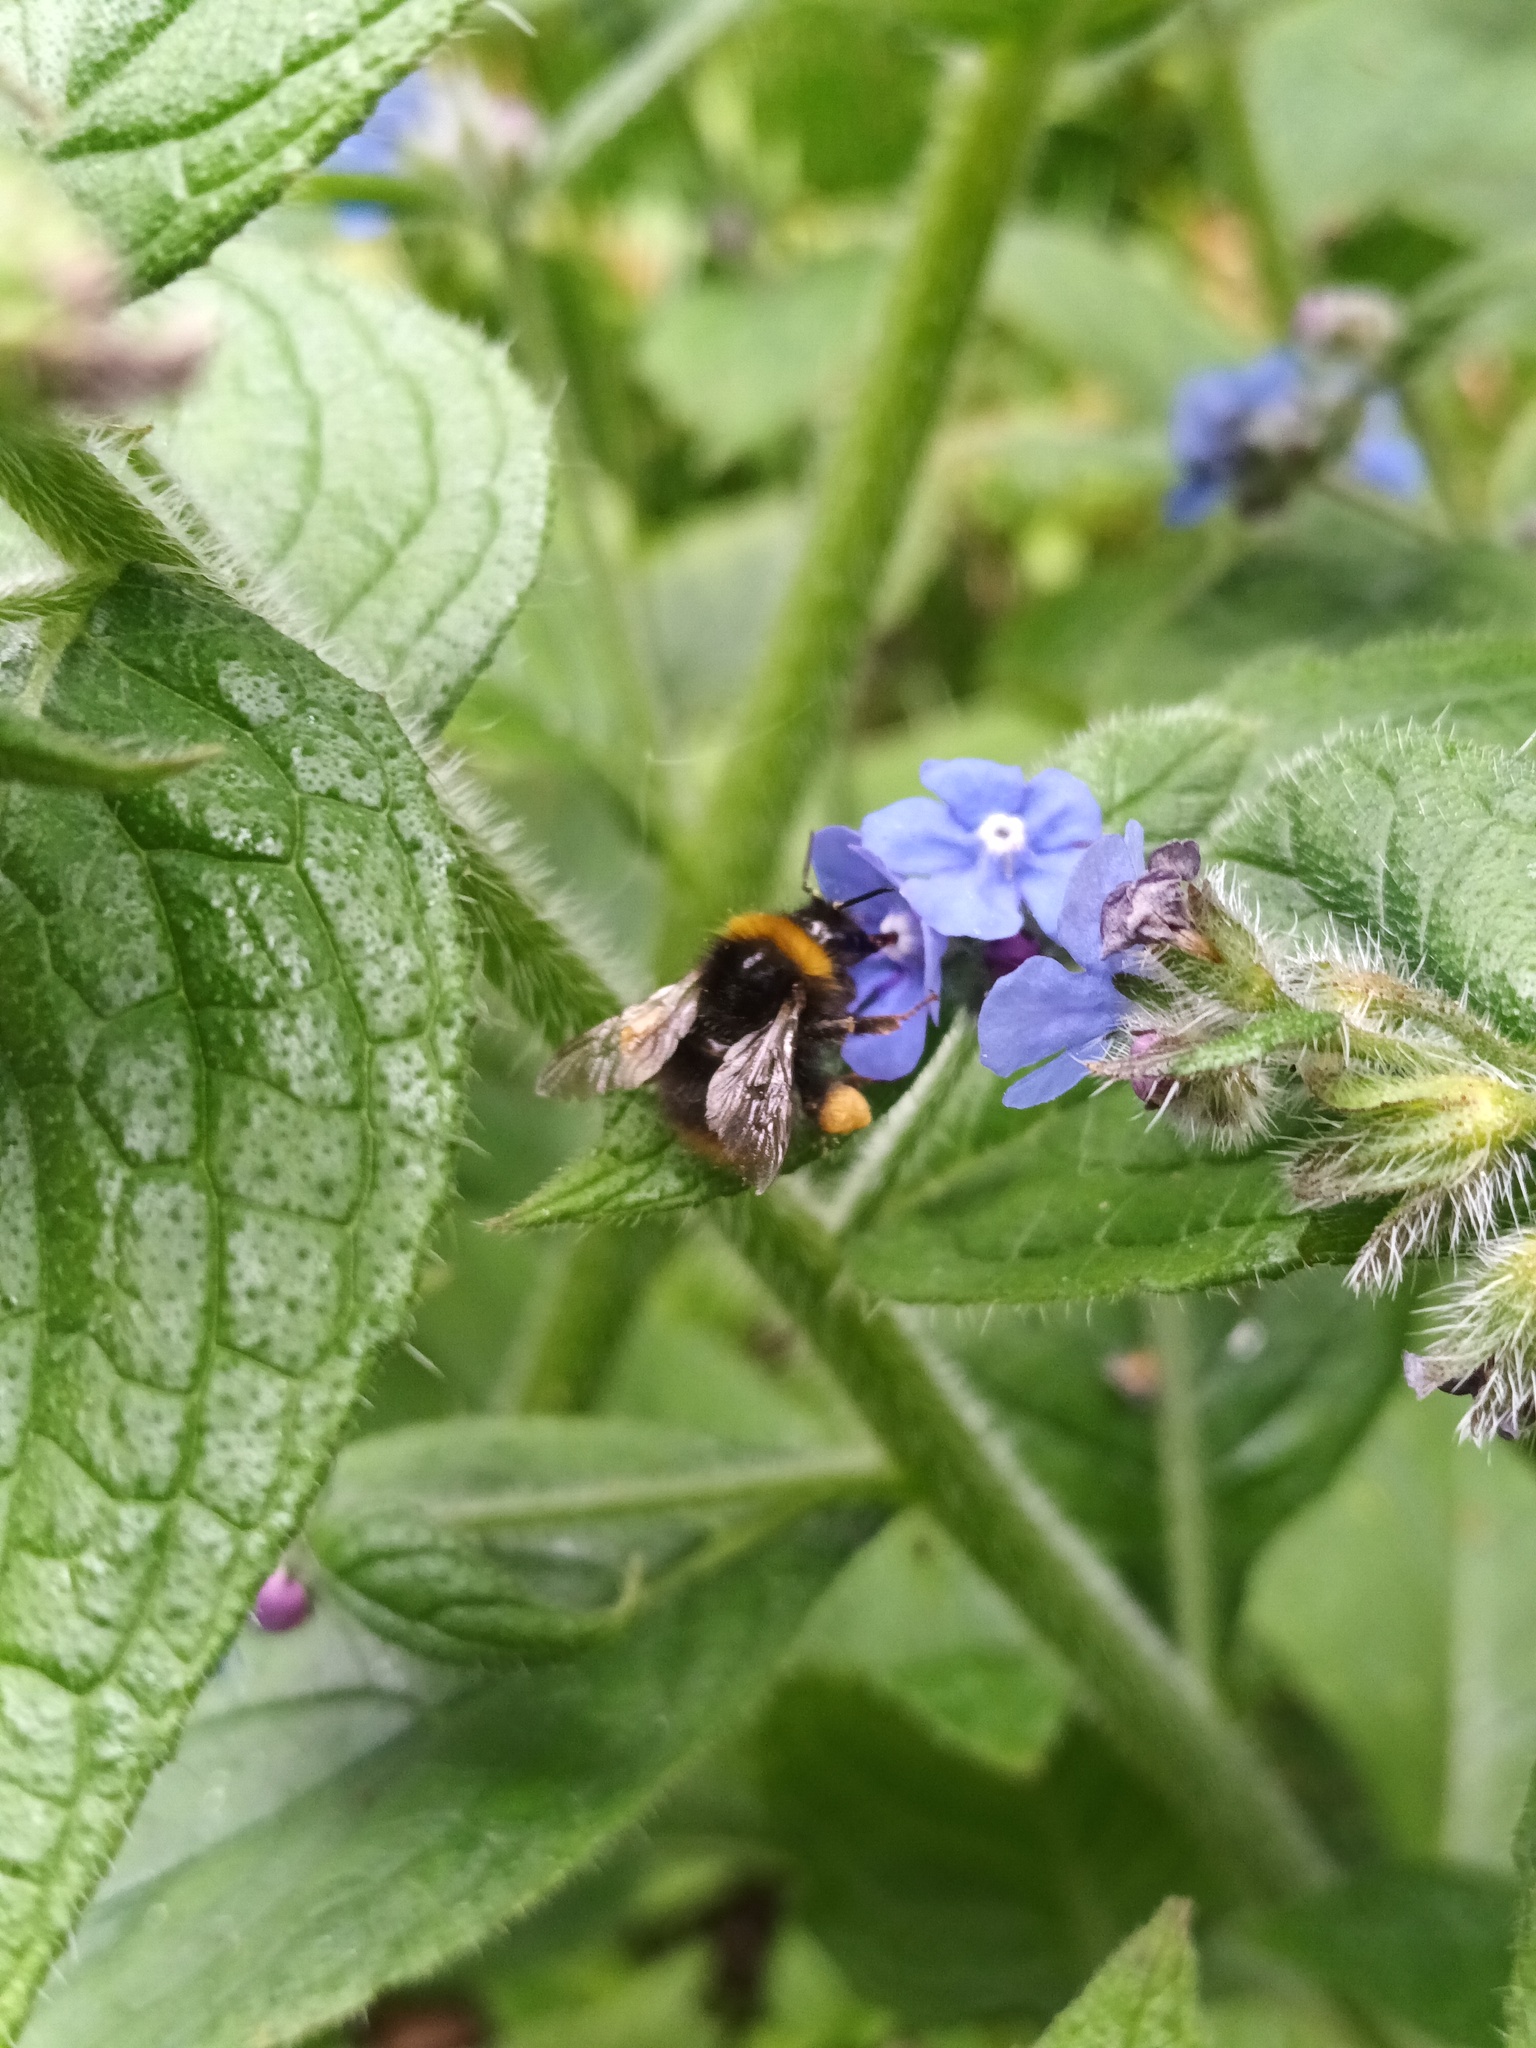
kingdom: Animalia
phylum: Arthropoda
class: Insecta
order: Hymenoptera
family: Apidae
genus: Bombus
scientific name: Bombus pratorum
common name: Early humble-bee
